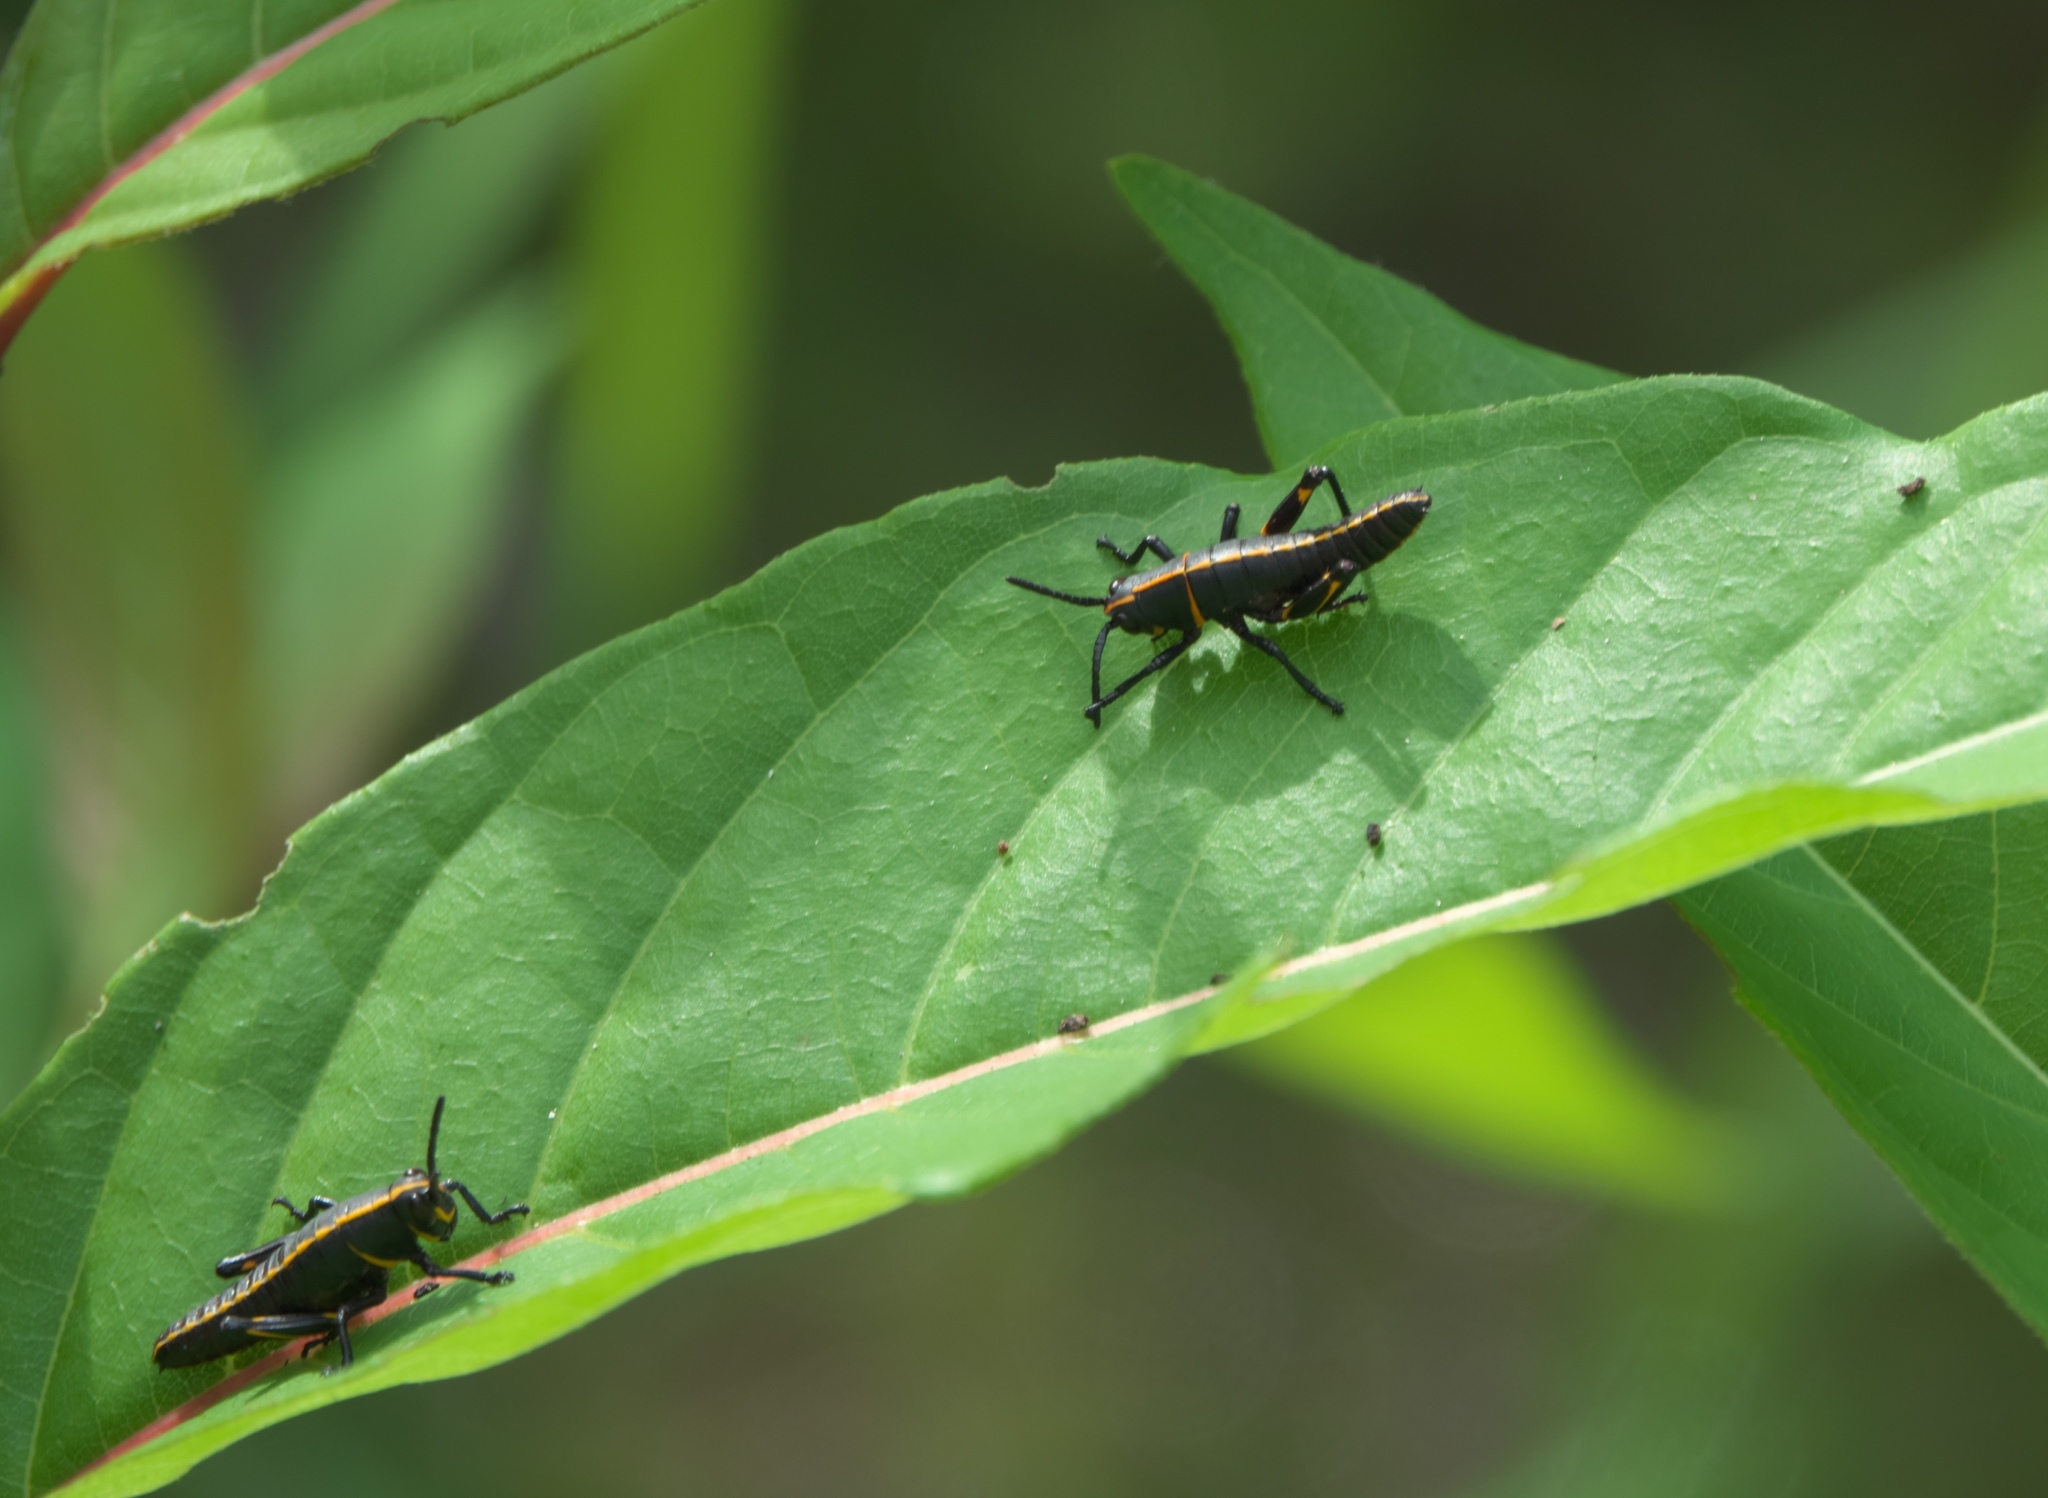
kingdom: Animalia
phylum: Arthropoda
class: Insecta
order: Orthoptera
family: Romaleidae
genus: Romalea
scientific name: Romalea microptera
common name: Eastern lubber grasshopper
